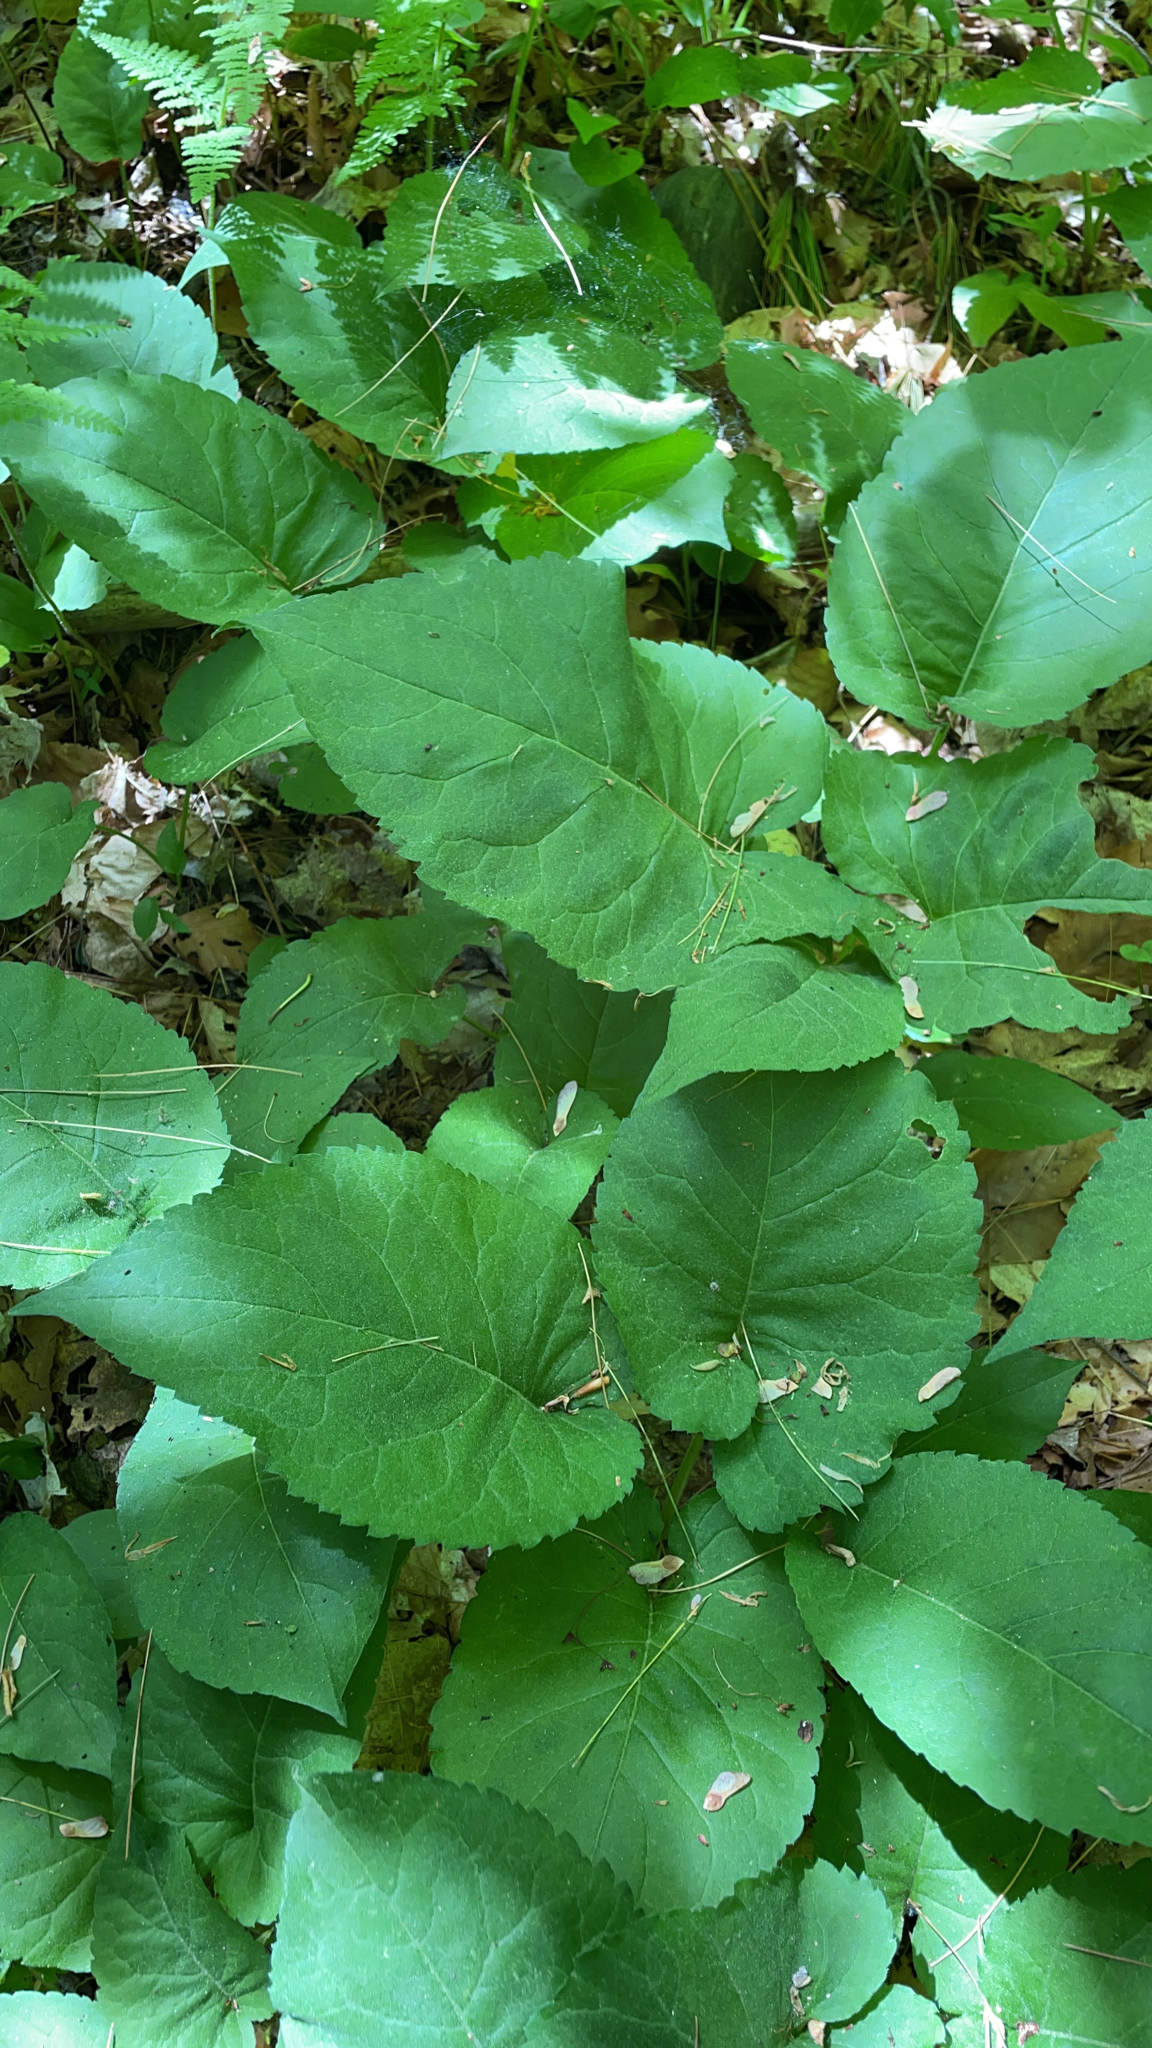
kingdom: Plantae
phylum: Tracheophyta
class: Magnoliopsida
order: Asterales
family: Asteraceae
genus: Eurybia
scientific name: Eurybia macrophylla
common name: Big-leaved aster
